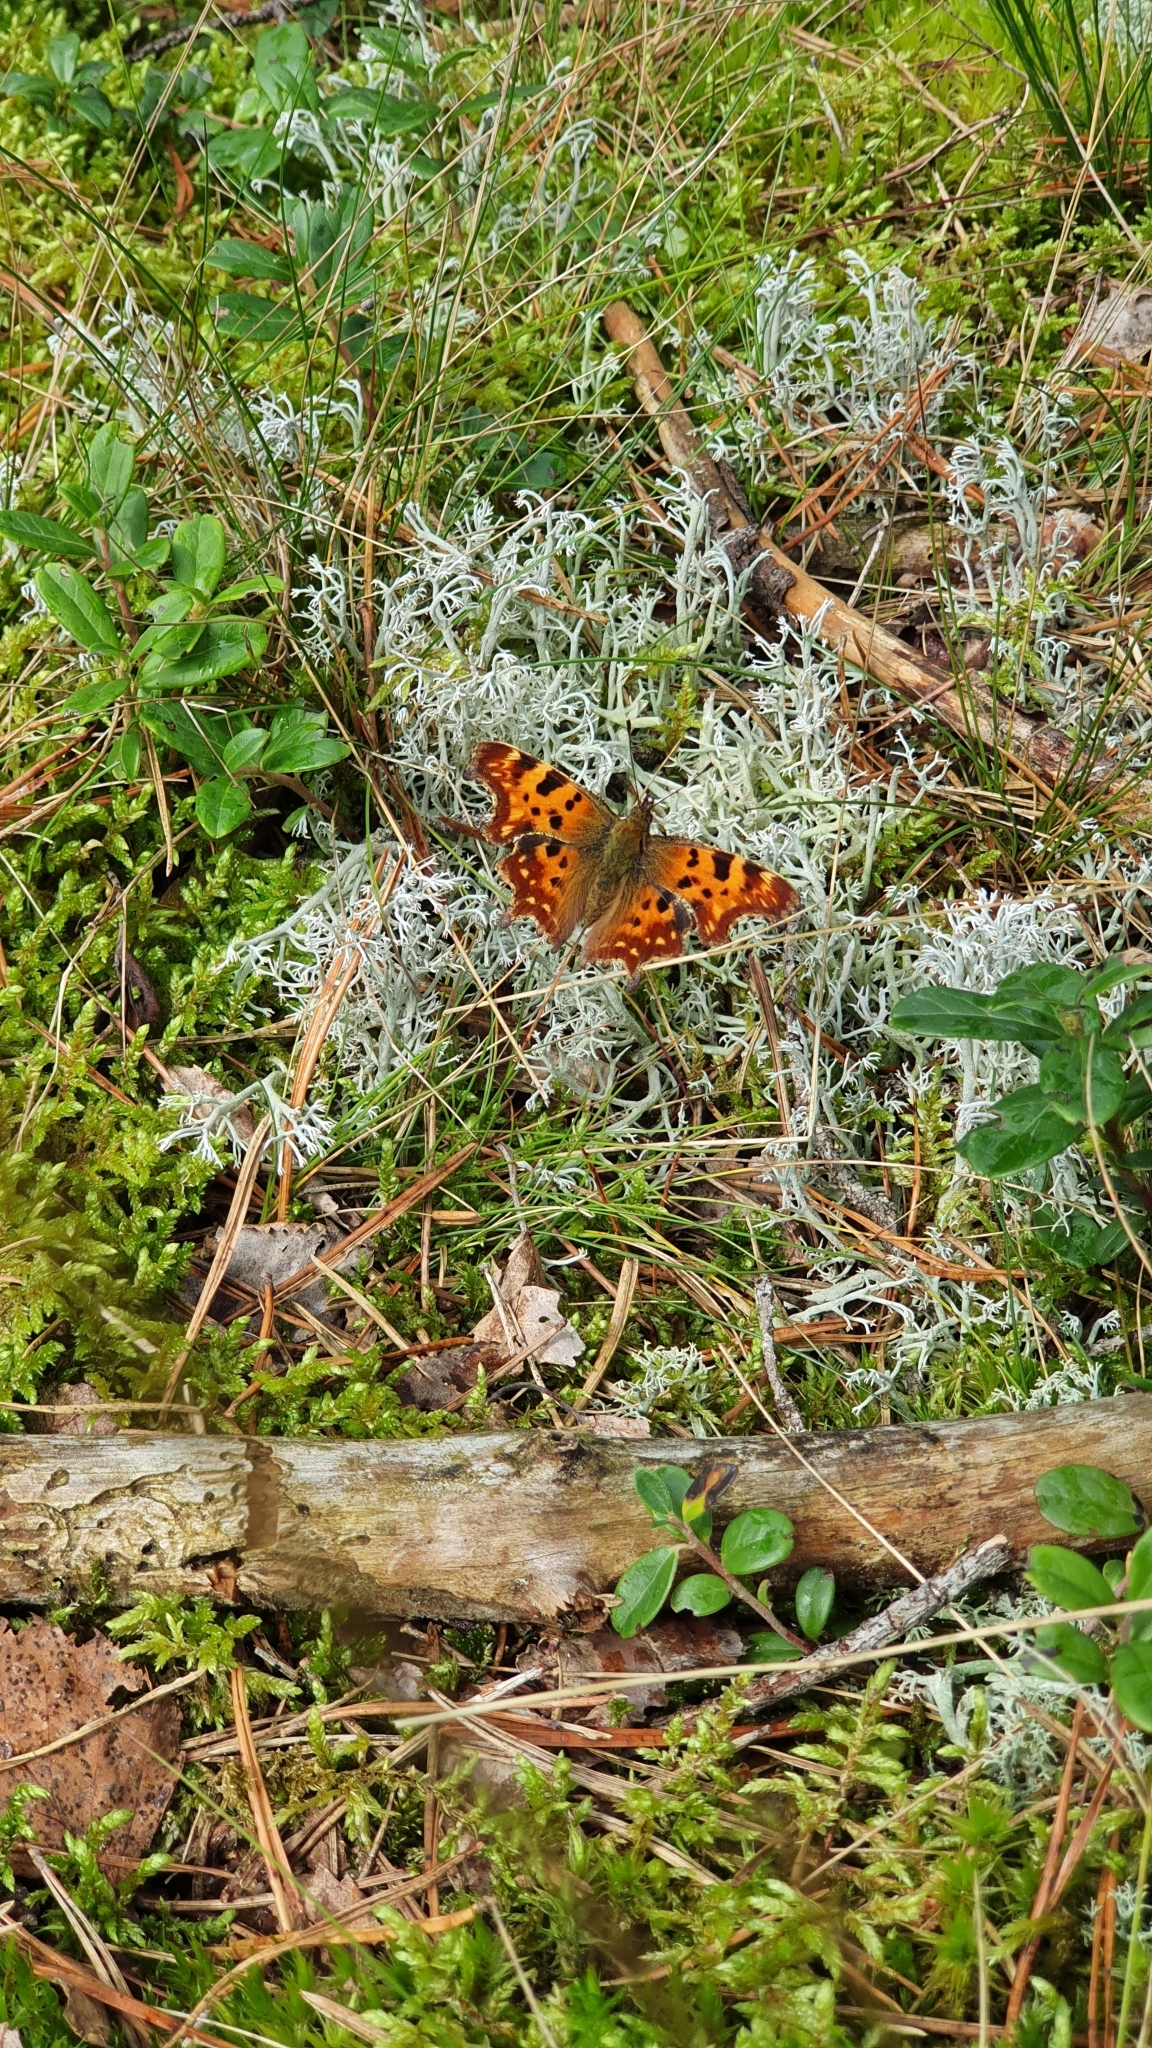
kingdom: Animalia
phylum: Arthropoda
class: Insecta
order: Lepidoptera
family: Nymphalidae
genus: Polygonia
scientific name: Polygonia c-album
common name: Comma
